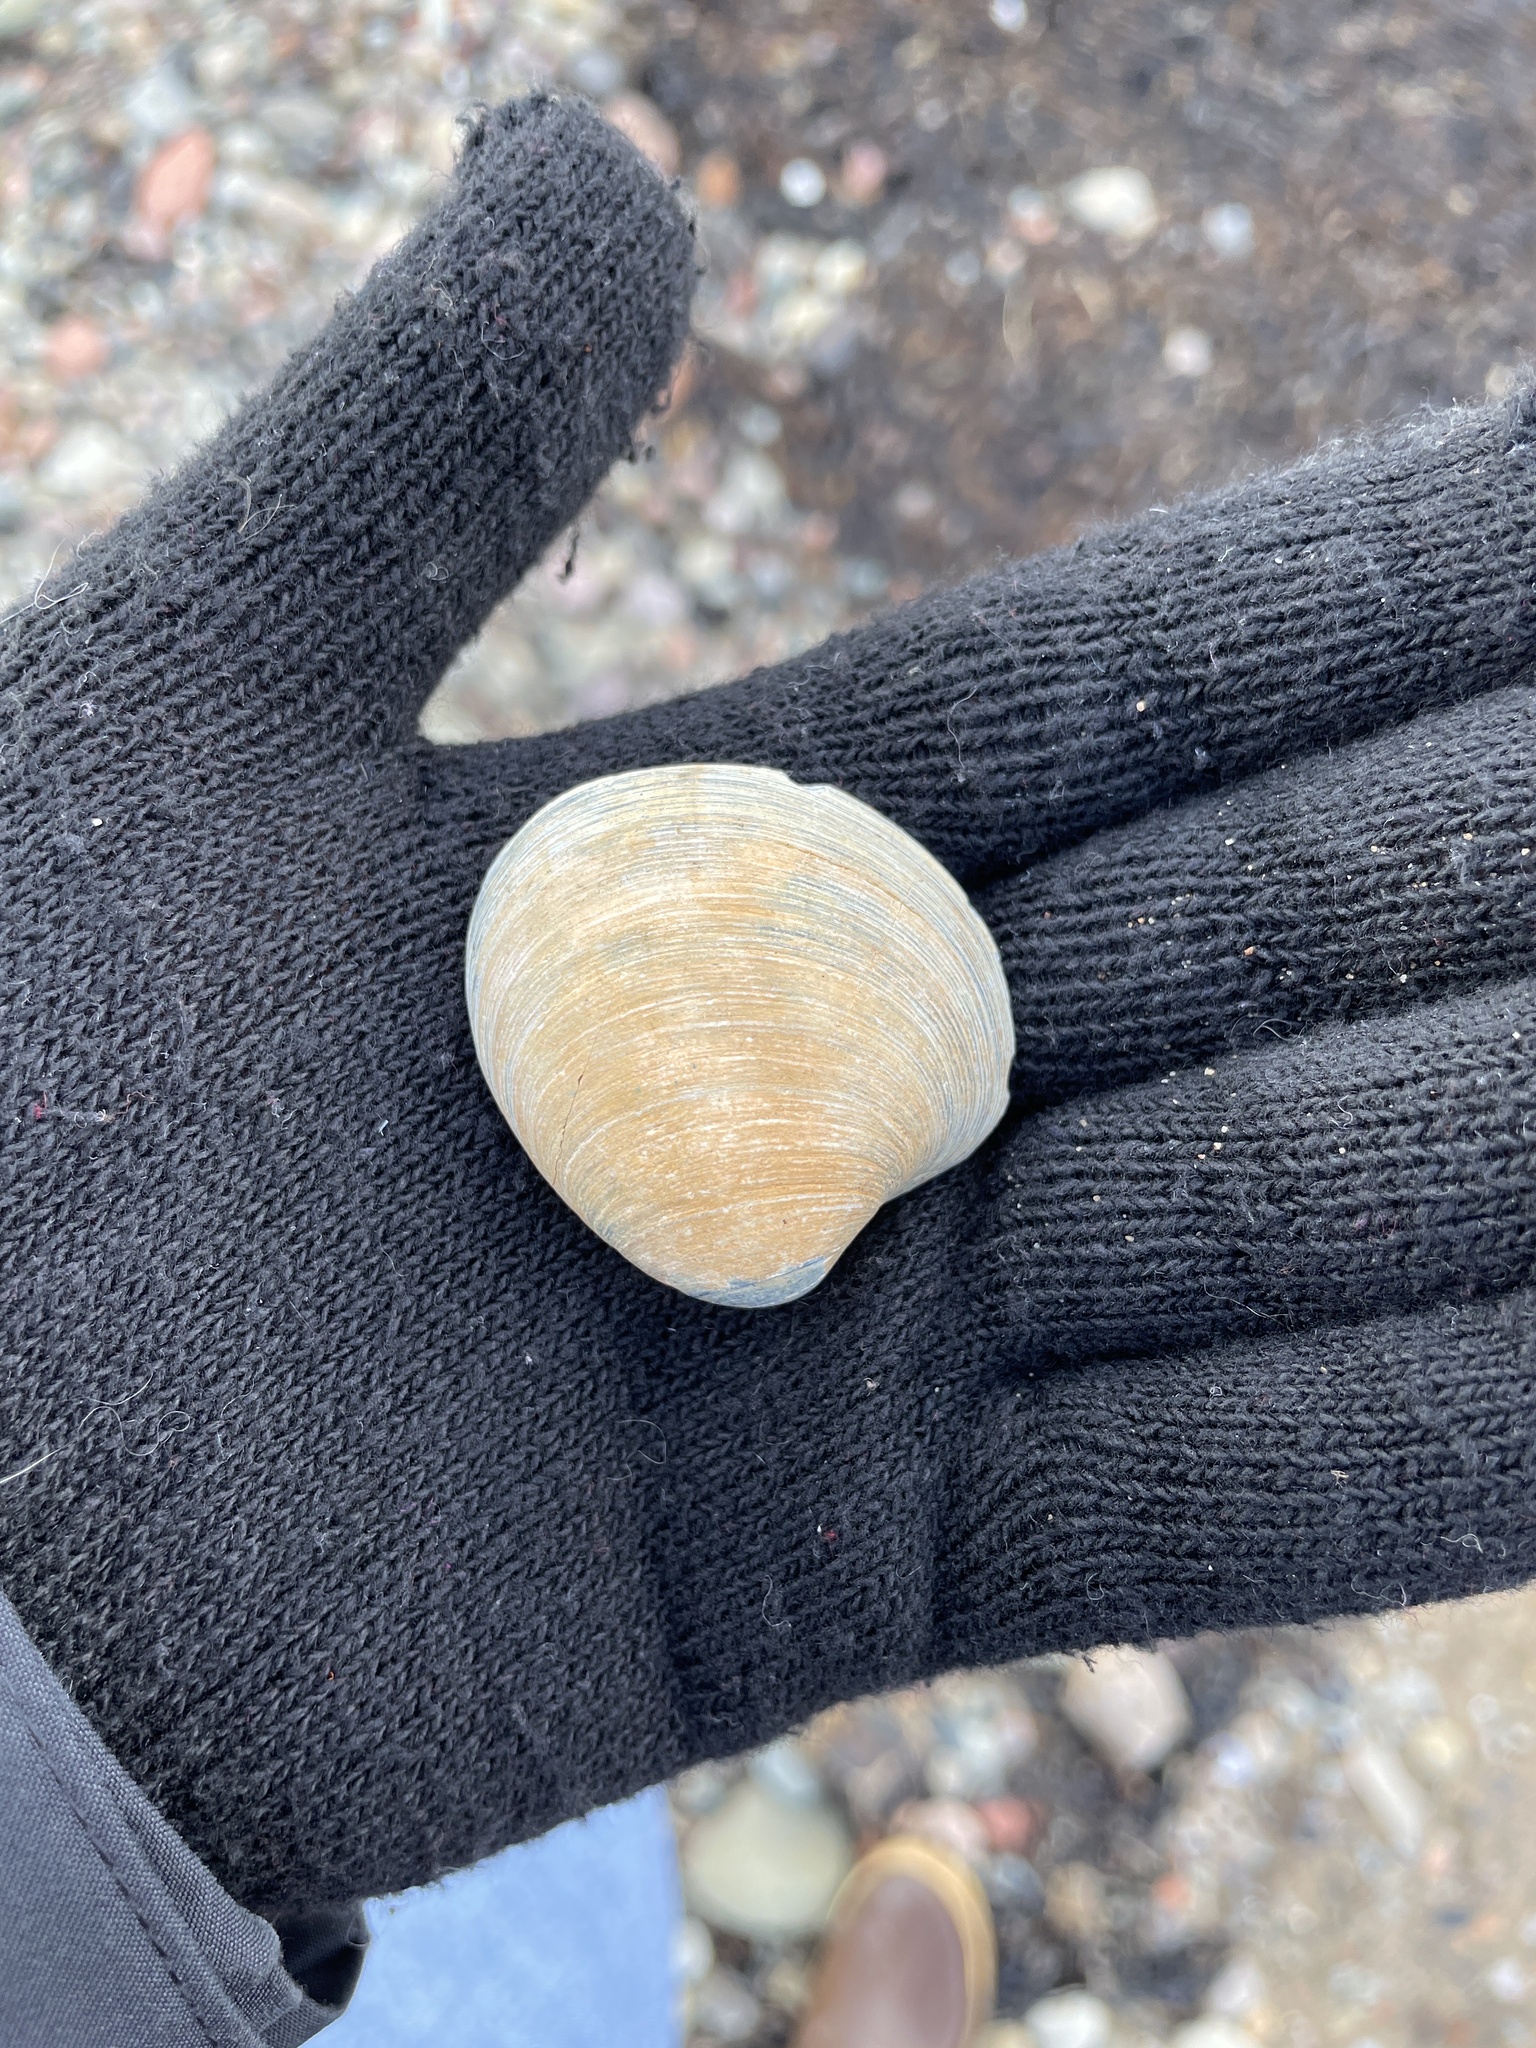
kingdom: Animalia
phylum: Mollusca
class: Bivalvia
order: Venerida
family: Veneridae
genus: Agriopoma
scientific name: Agriopoma morrhuanum
